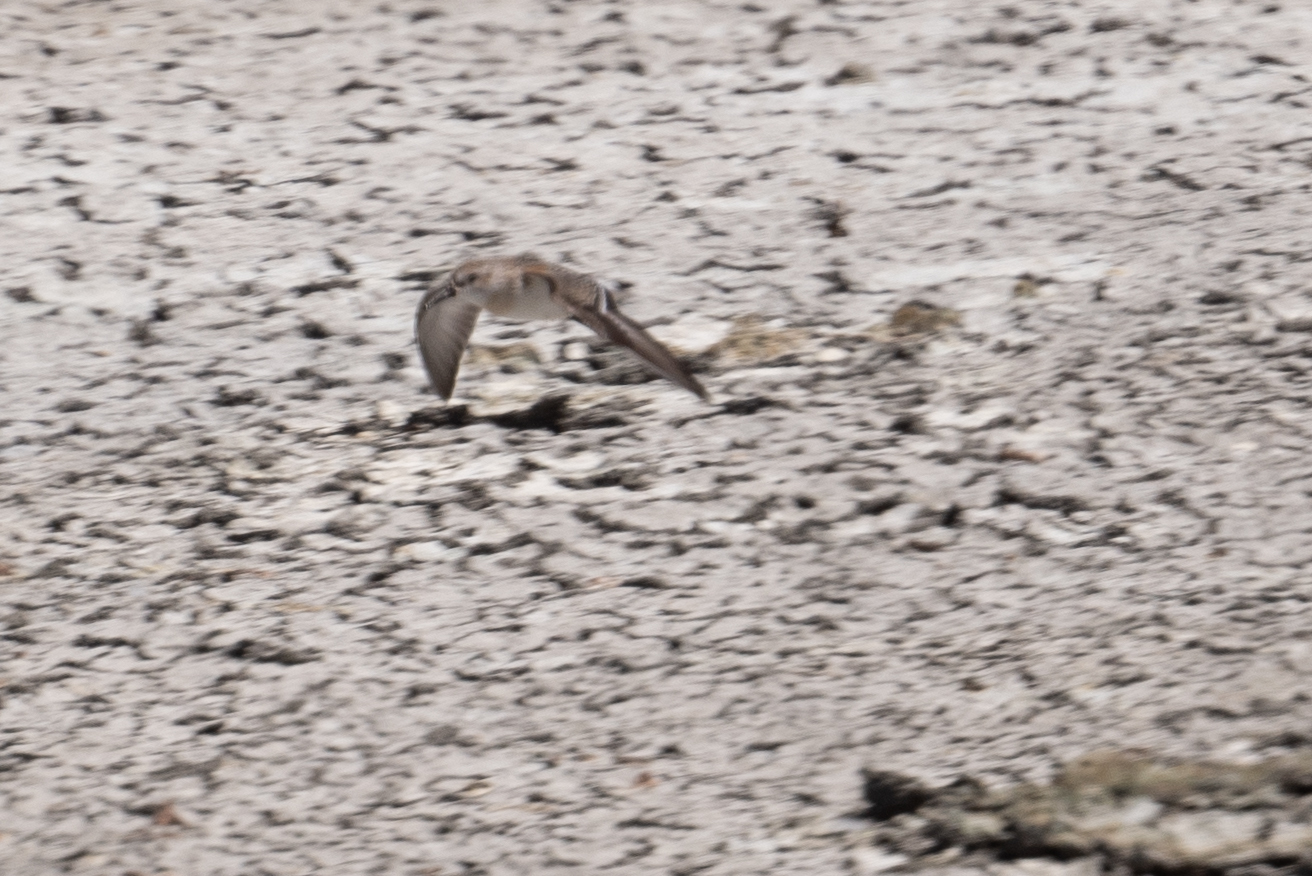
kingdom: Animalia
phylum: Chordata
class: Aves
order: Charadriiformes
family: Scolopacidae
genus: Calidris
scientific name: Calidris mauri
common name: Western sandpiper
